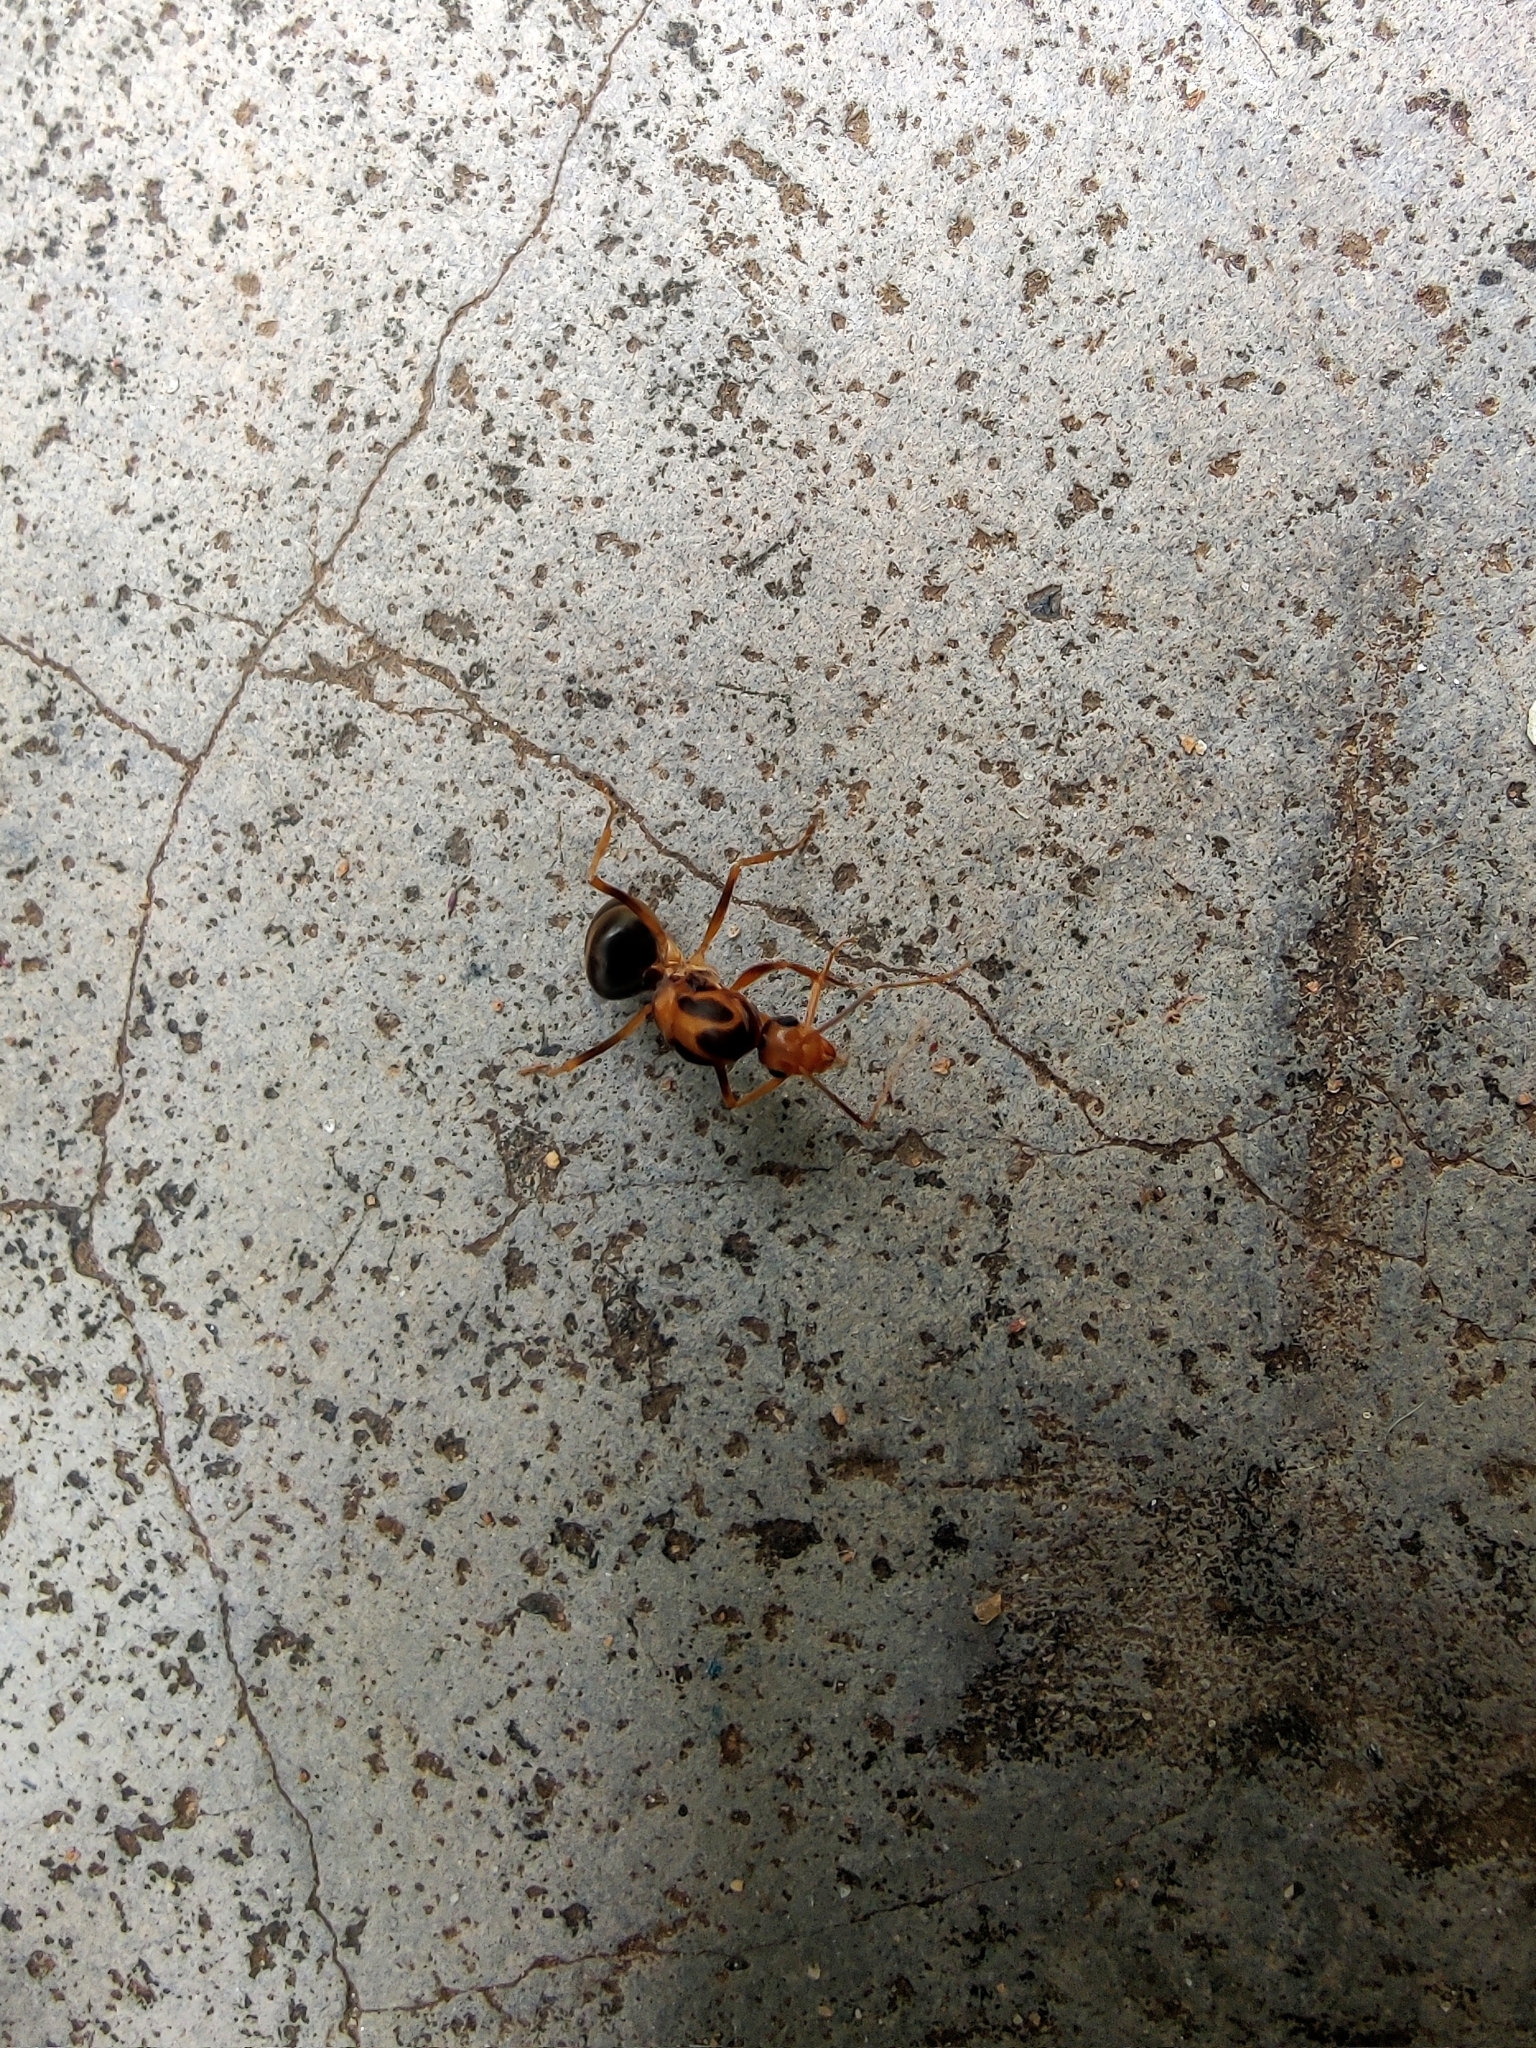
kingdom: Animalia
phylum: Arthropoda
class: Insecta
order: Hymenoptera
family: Formicidae
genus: Anoplolepis
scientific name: Anoplolepis gracilipes
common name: Ant
